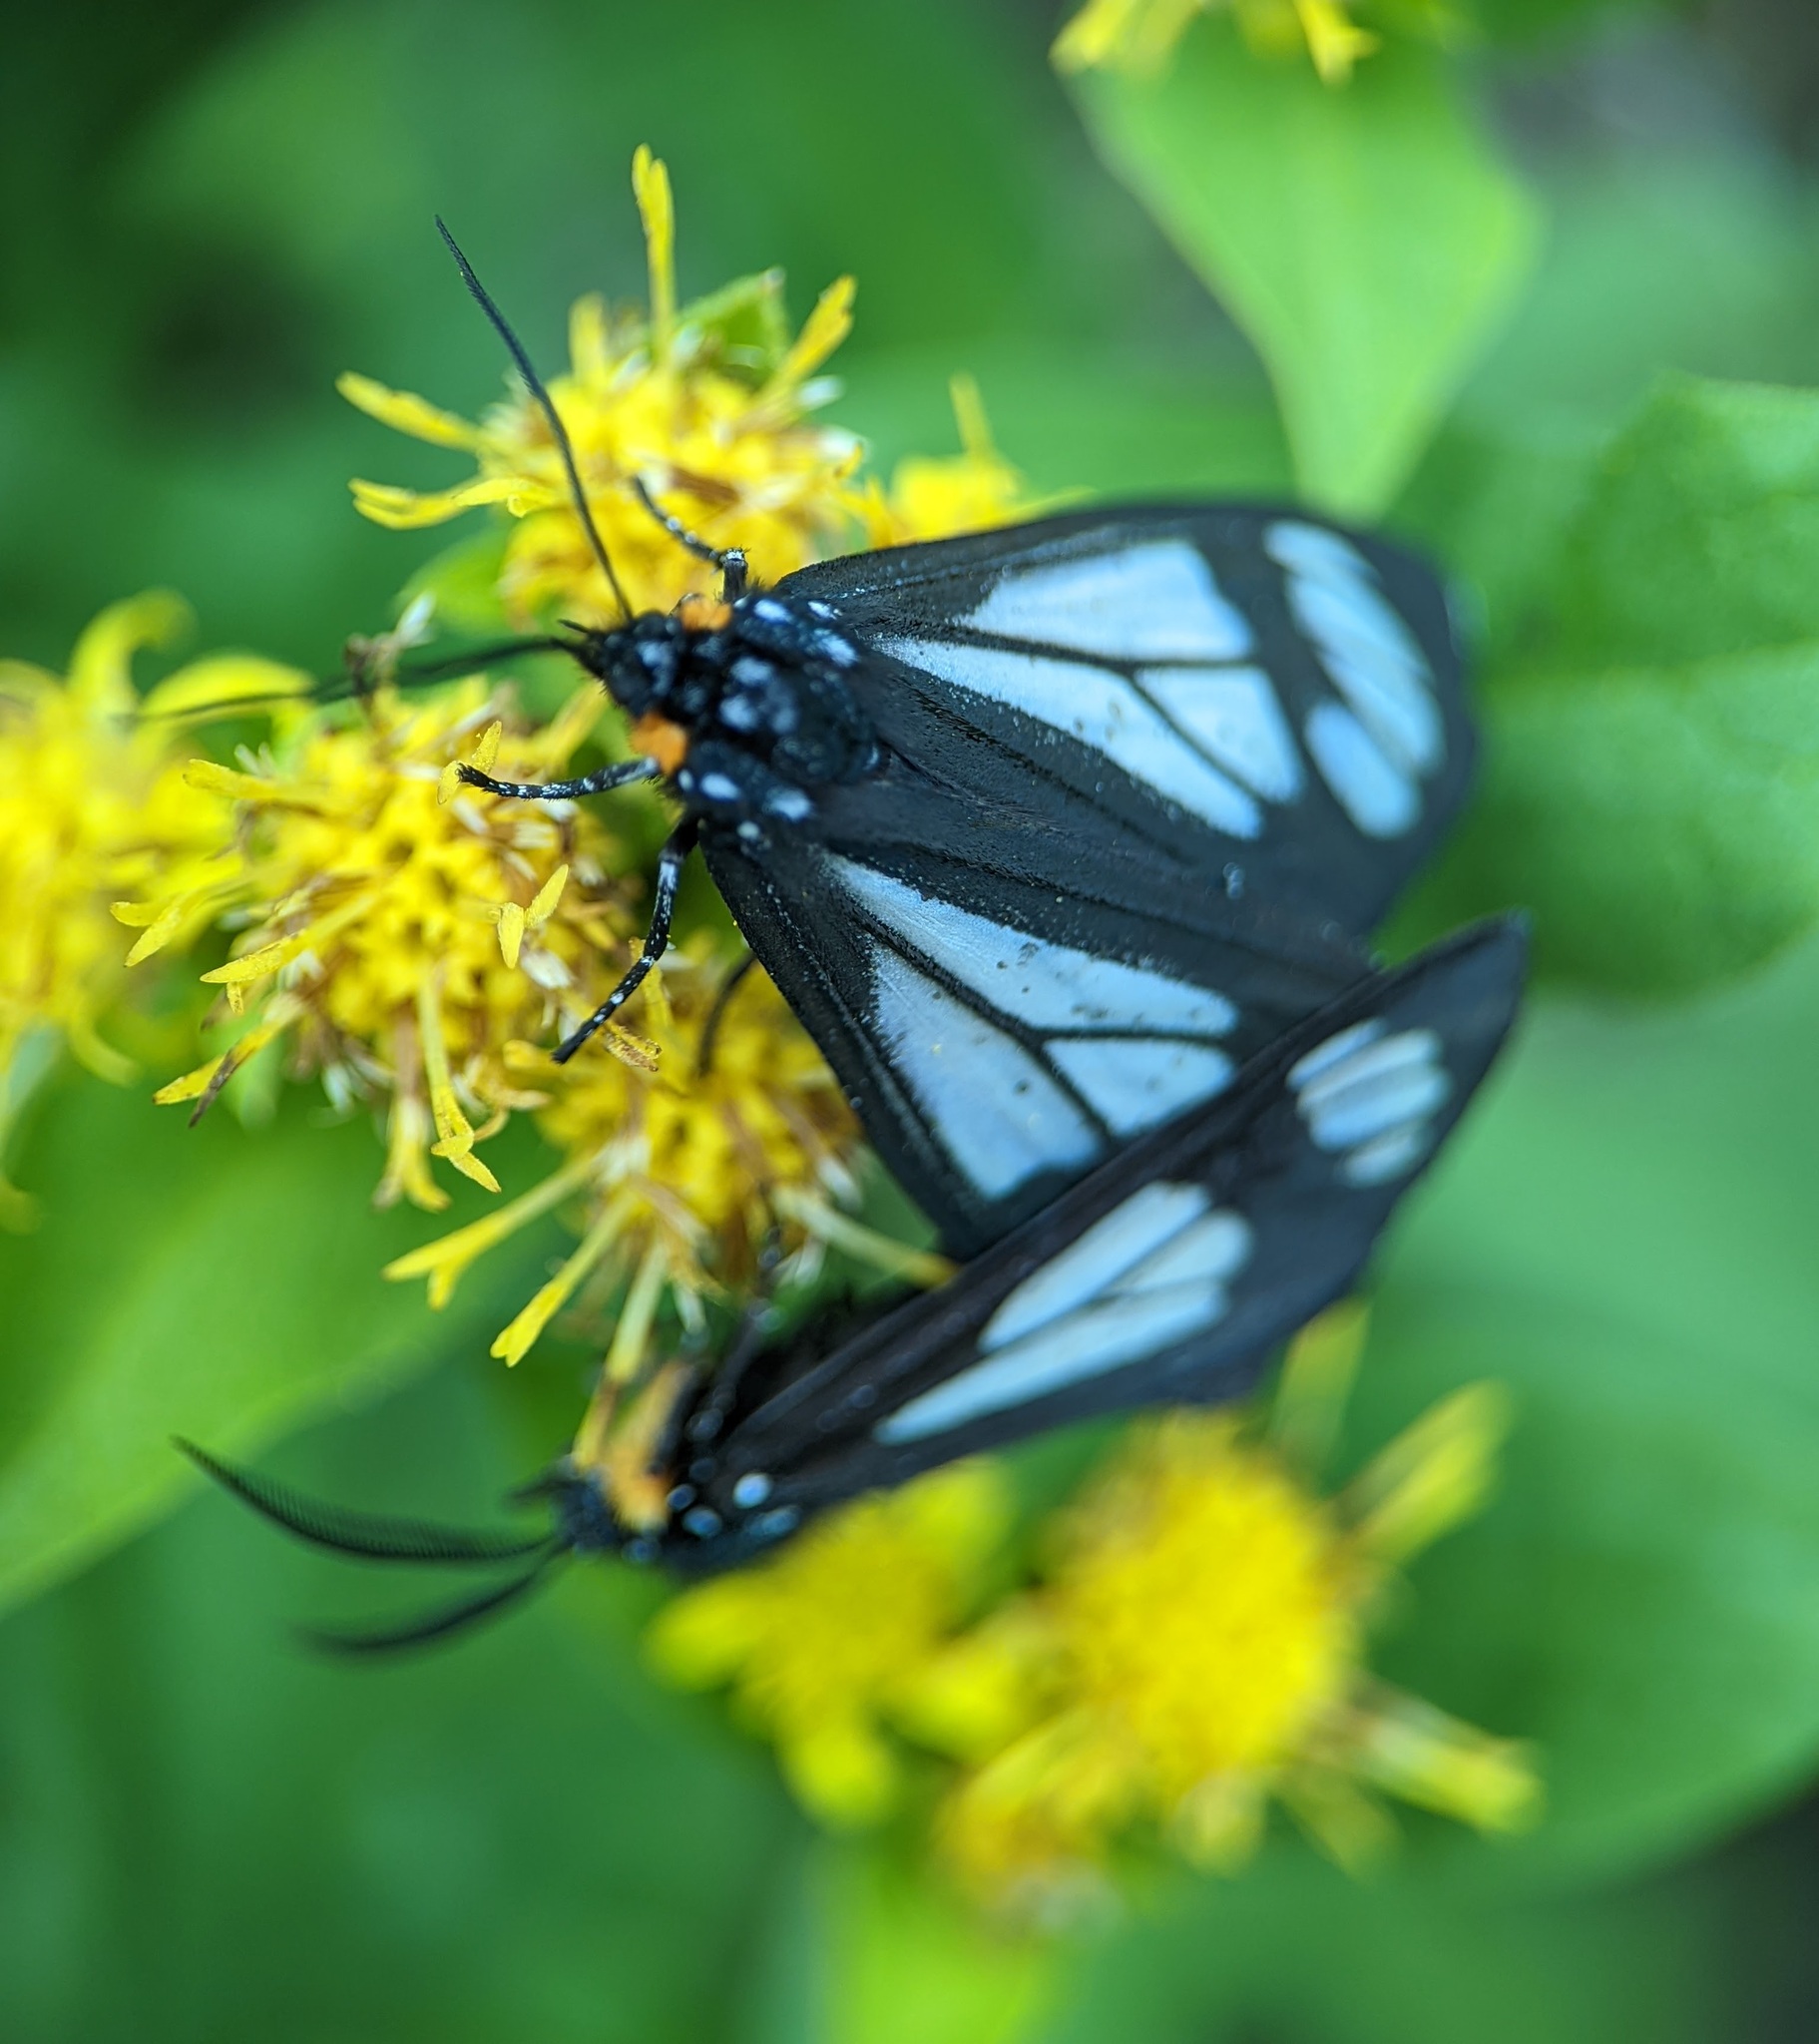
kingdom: Animalia
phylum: Arthropoda
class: Insecta
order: Lepidoptera
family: Erebidae
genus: Gnophaela
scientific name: Gnophaela vermiculata
